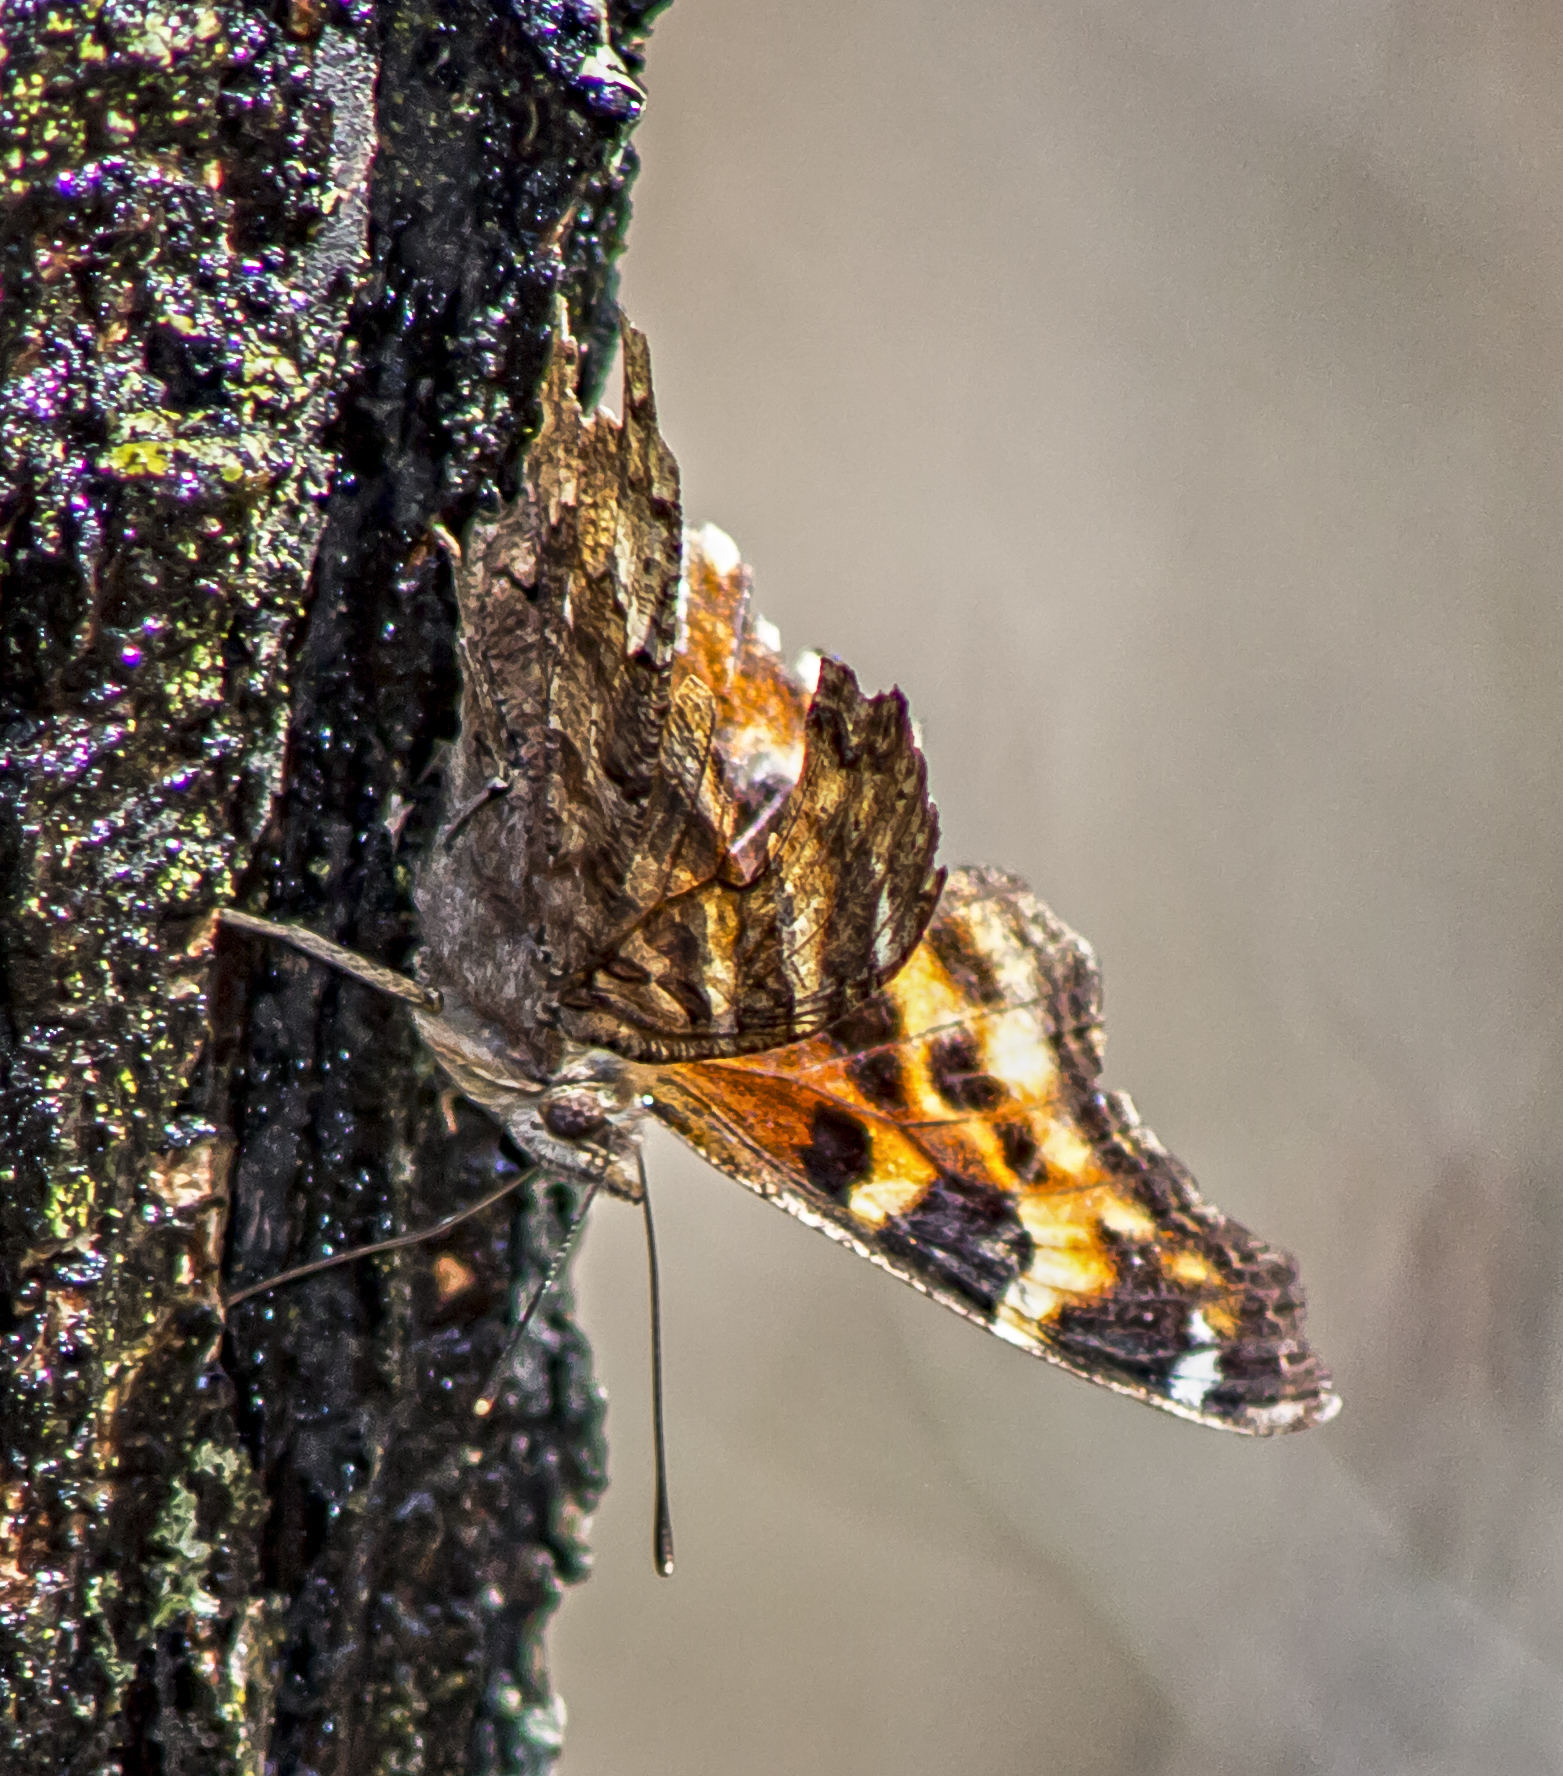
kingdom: Animalia
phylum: Arthropoda
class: Insecta
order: Lepidoptera
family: Nymphalidae
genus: Polygonia
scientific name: Polygonia vaualbum
